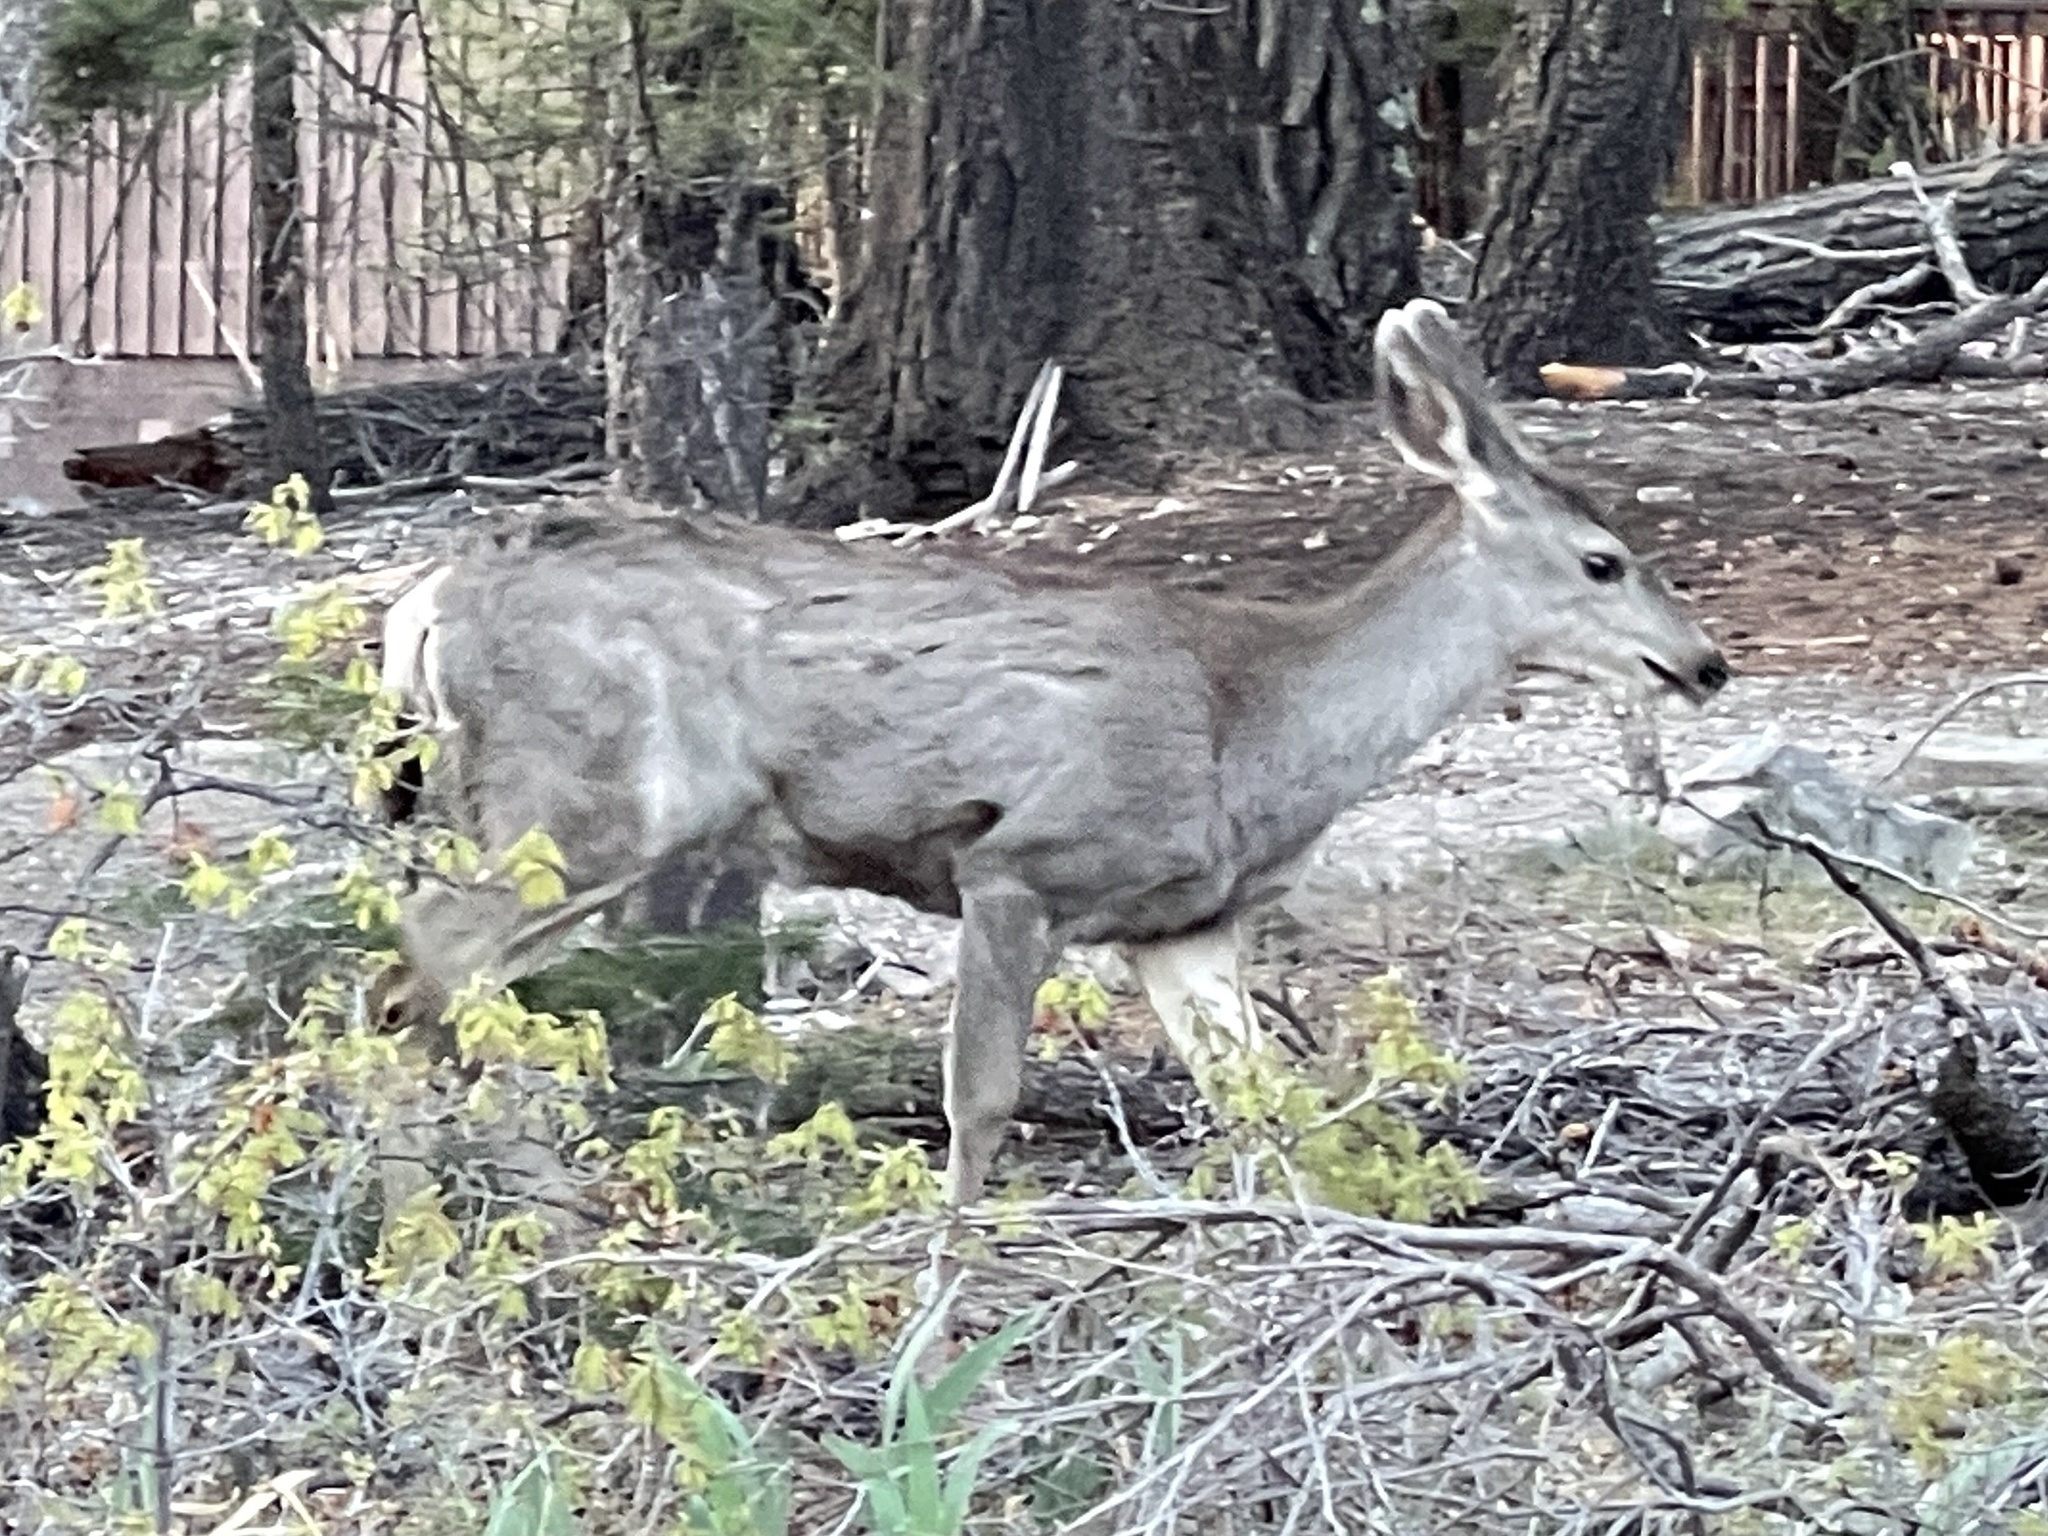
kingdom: Animalia
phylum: Chordata
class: Mammalia
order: Artiodactyla
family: Cervidae
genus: Odocoileus
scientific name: Odocoileus hemionus
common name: Mule deer
